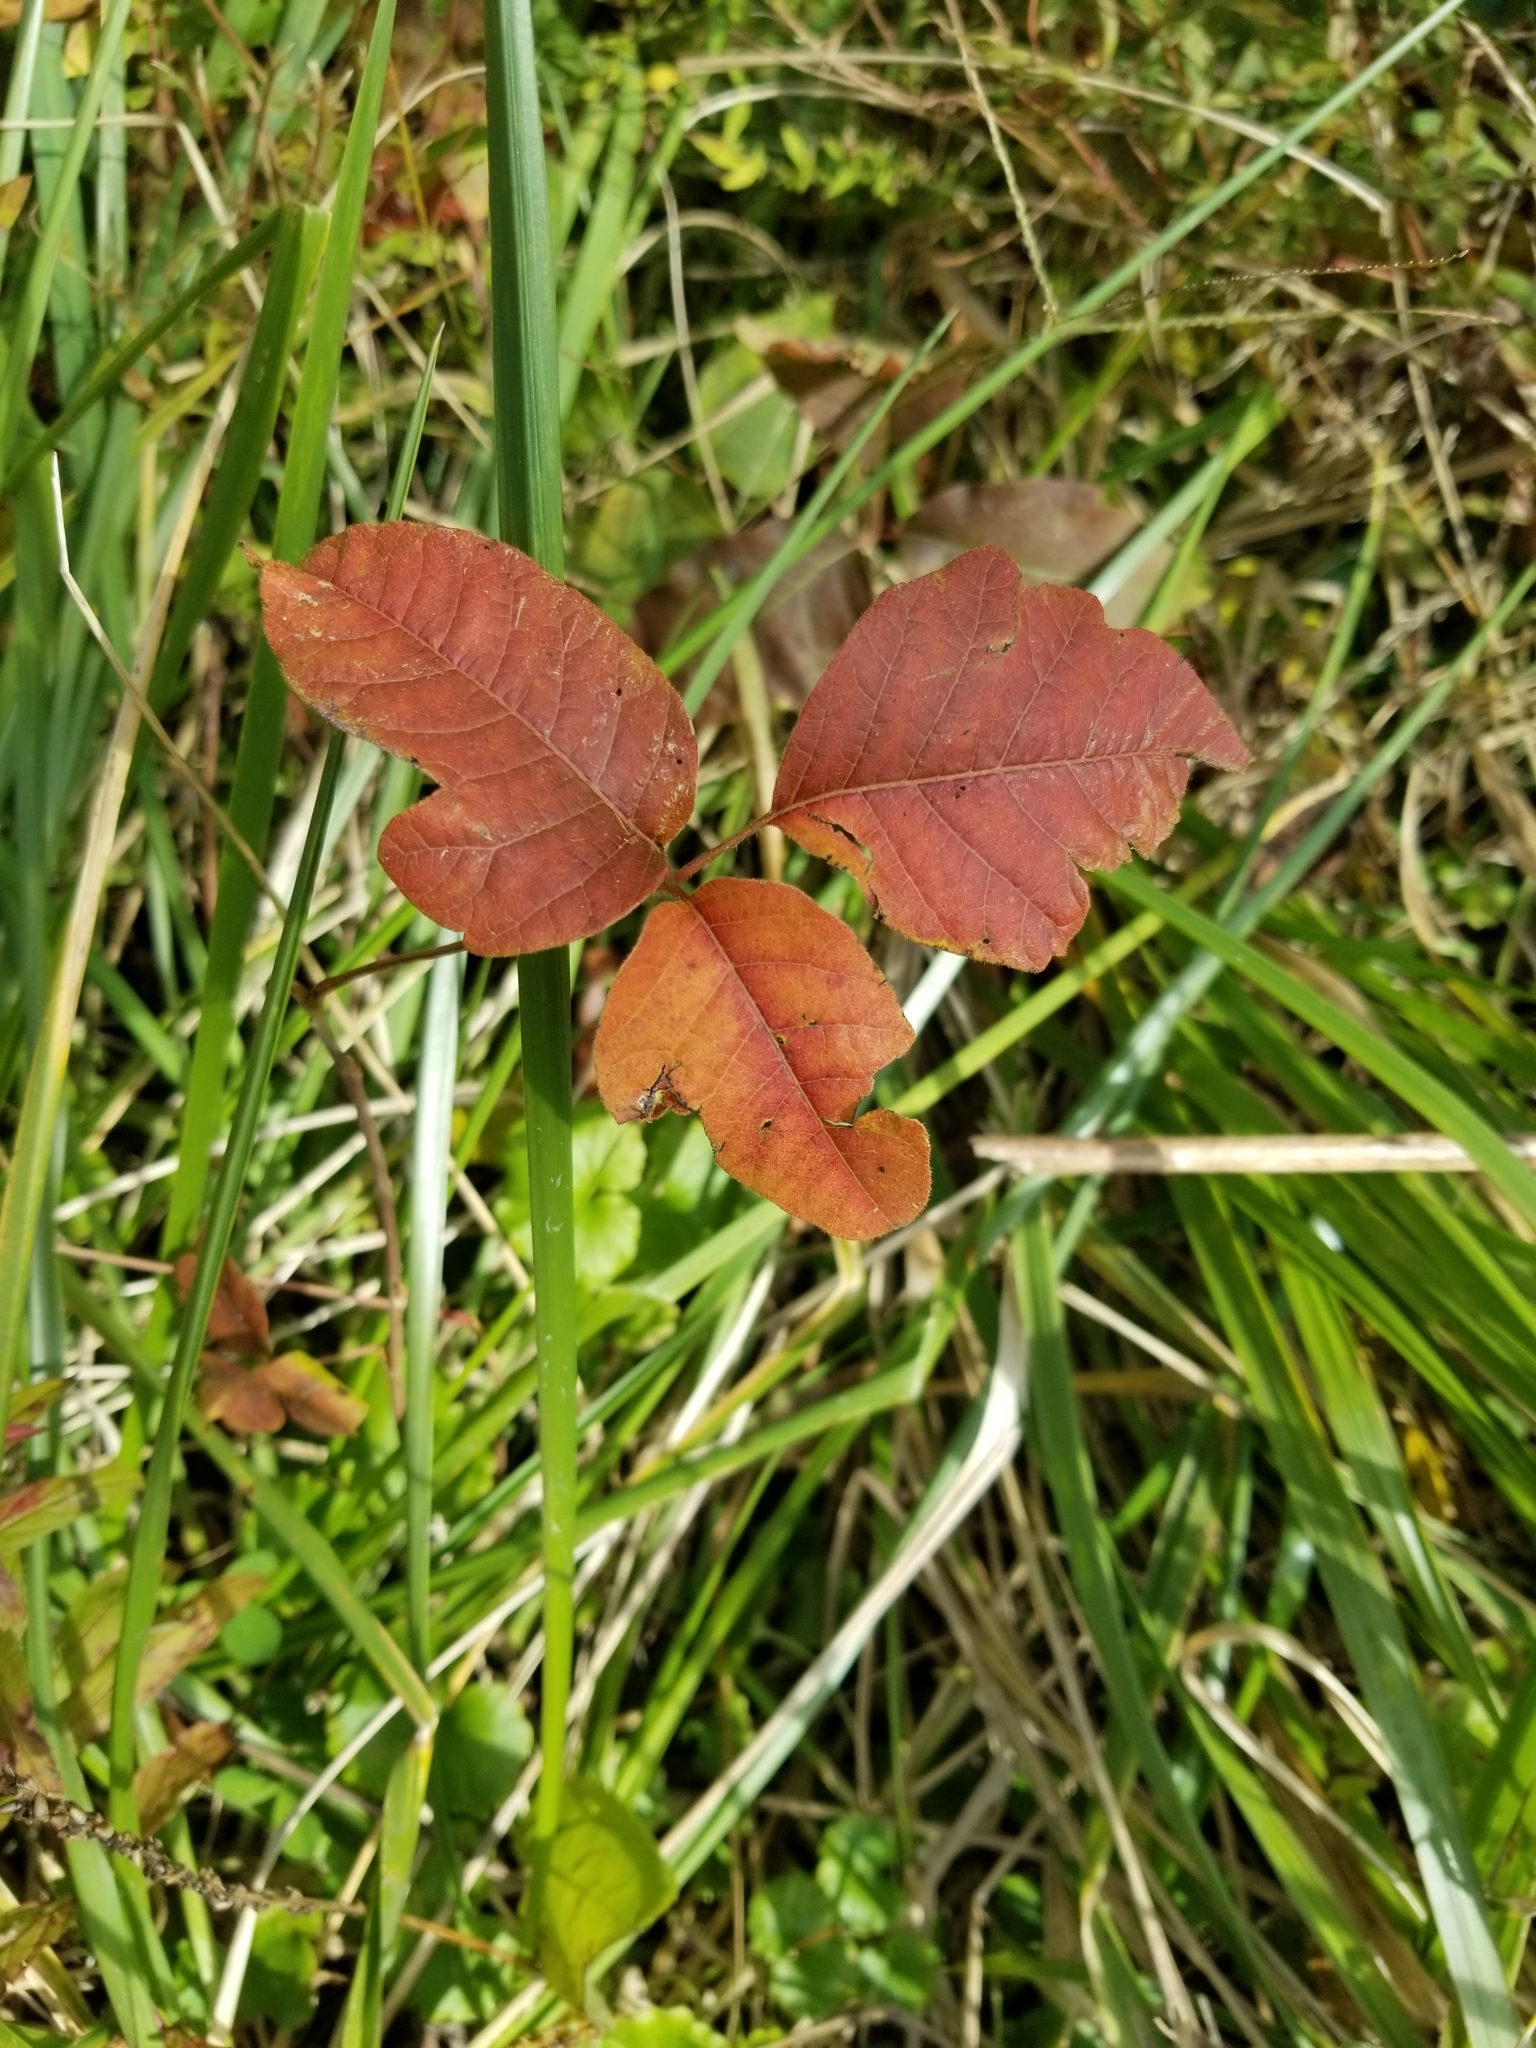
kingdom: Plantae
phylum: Tracheophyta
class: Magnoliopsida
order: Sapindales
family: Anacardiaceae
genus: Toxicodendron
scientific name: Toxicodendron radicans
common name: Poison ivy
